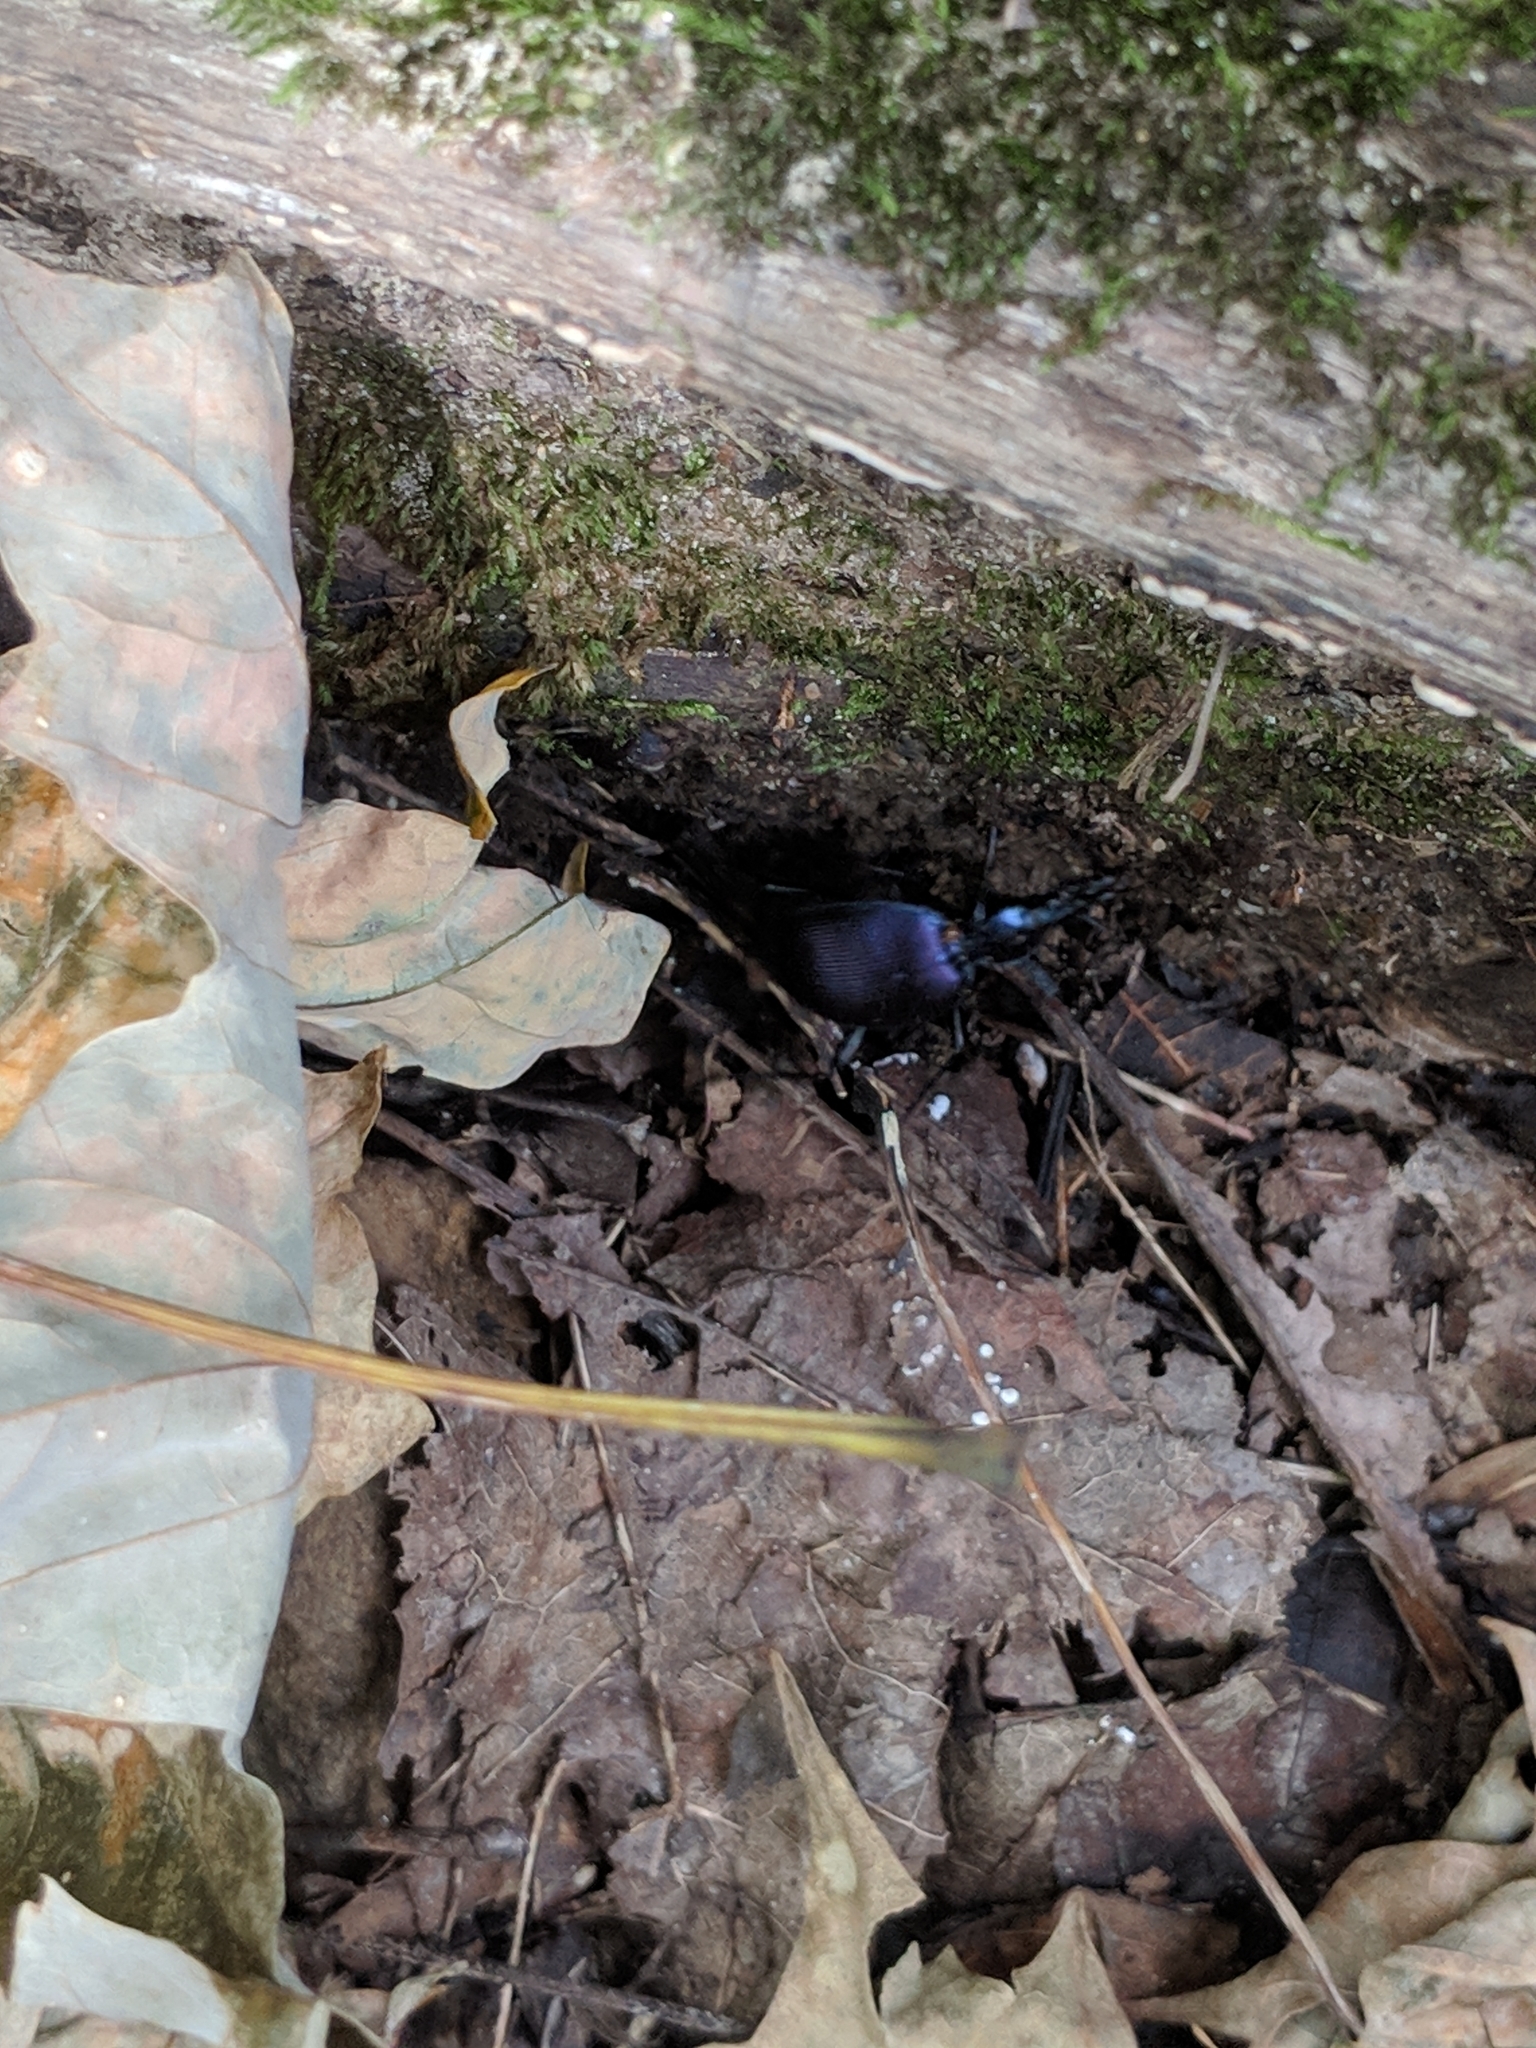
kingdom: Animalia
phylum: Arthropoda
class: Insecta
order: Coleoptera
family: Carabidae
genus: Scaphinotus
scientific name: Scaphinotus andrewsii
